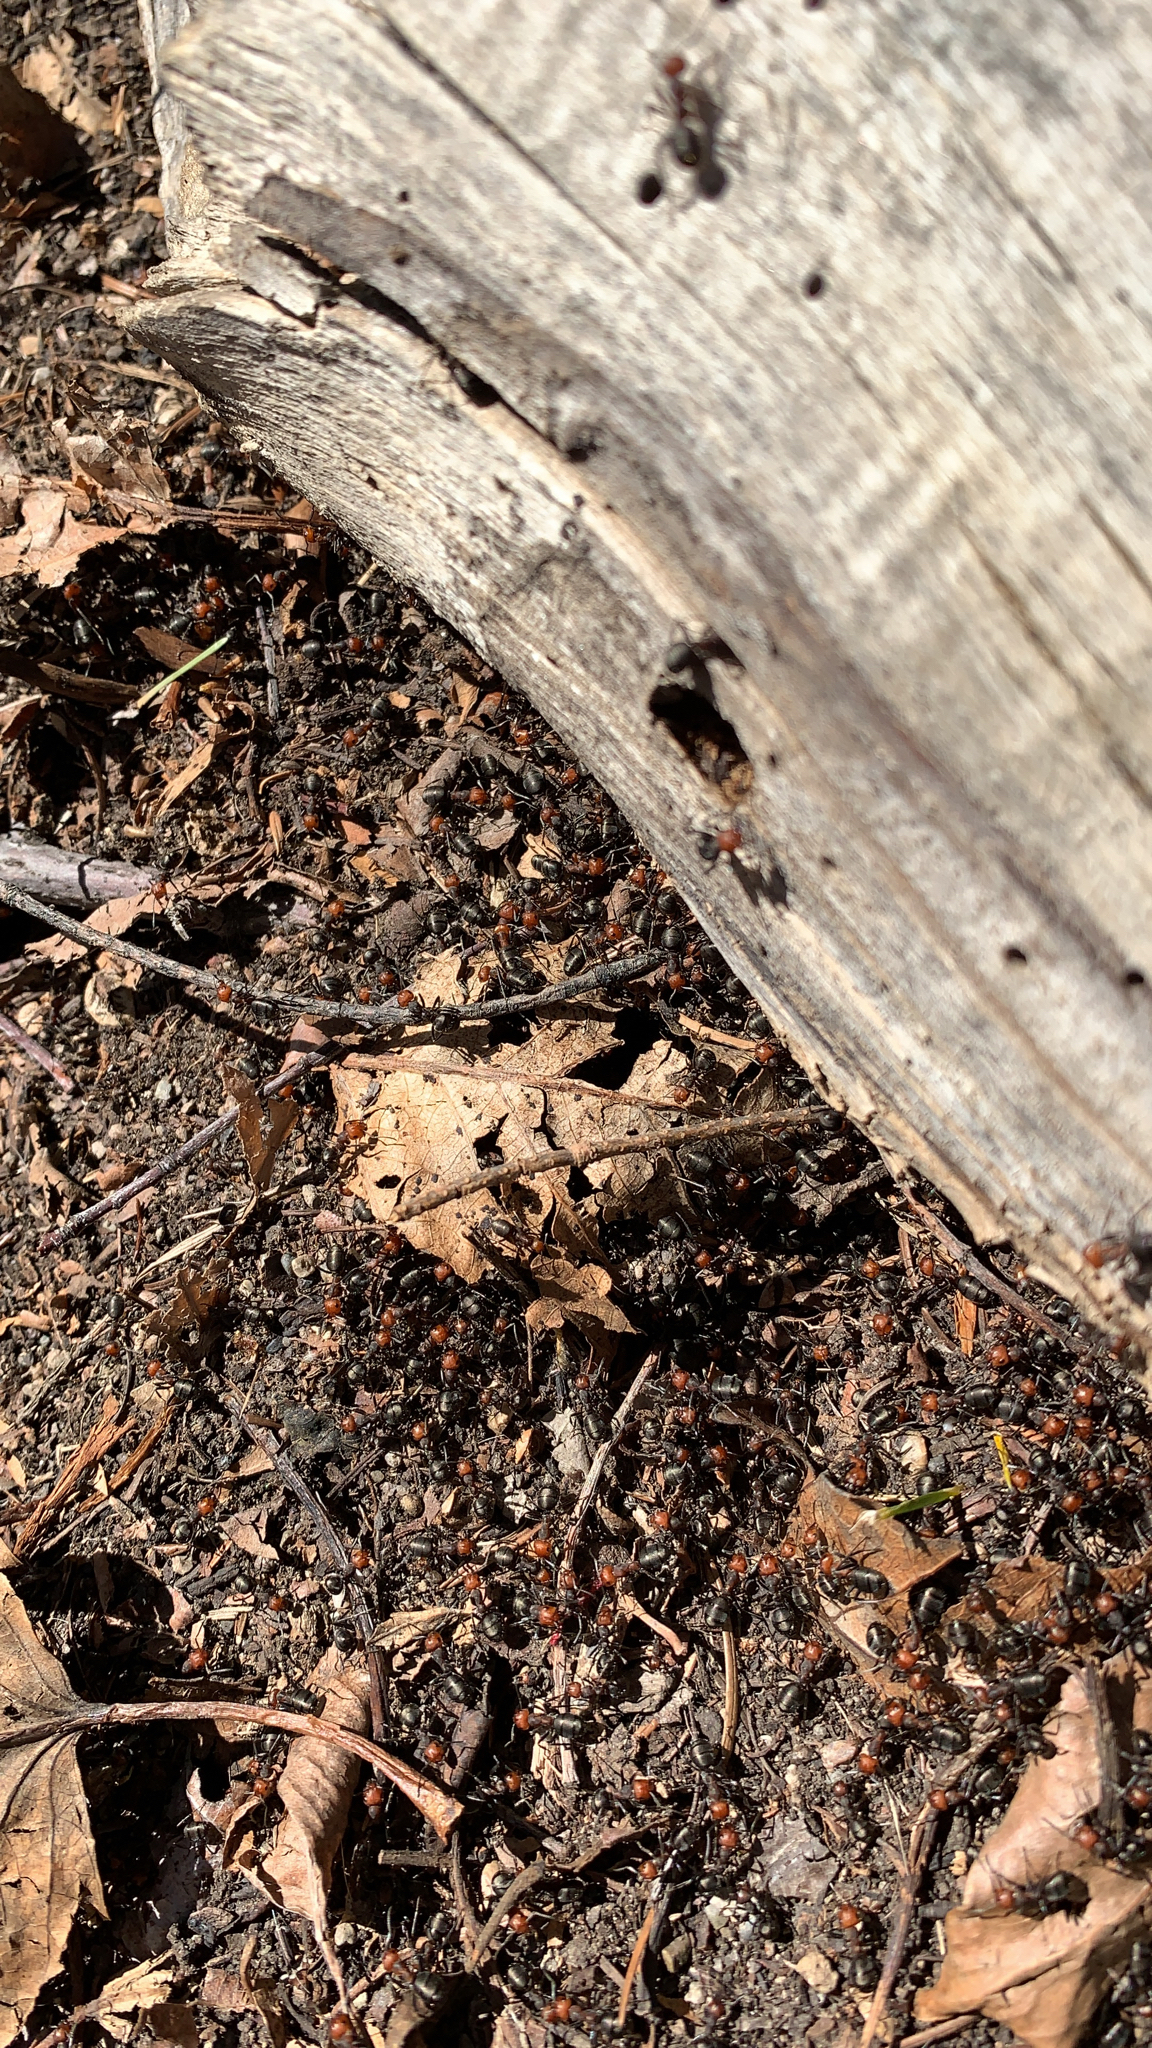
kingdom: Animalia
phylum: Arthropoda
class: Insecta
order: Hymenoptera
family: Formicidae
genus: Formica
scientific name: Formica obscuripes
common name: Western thatching ant
